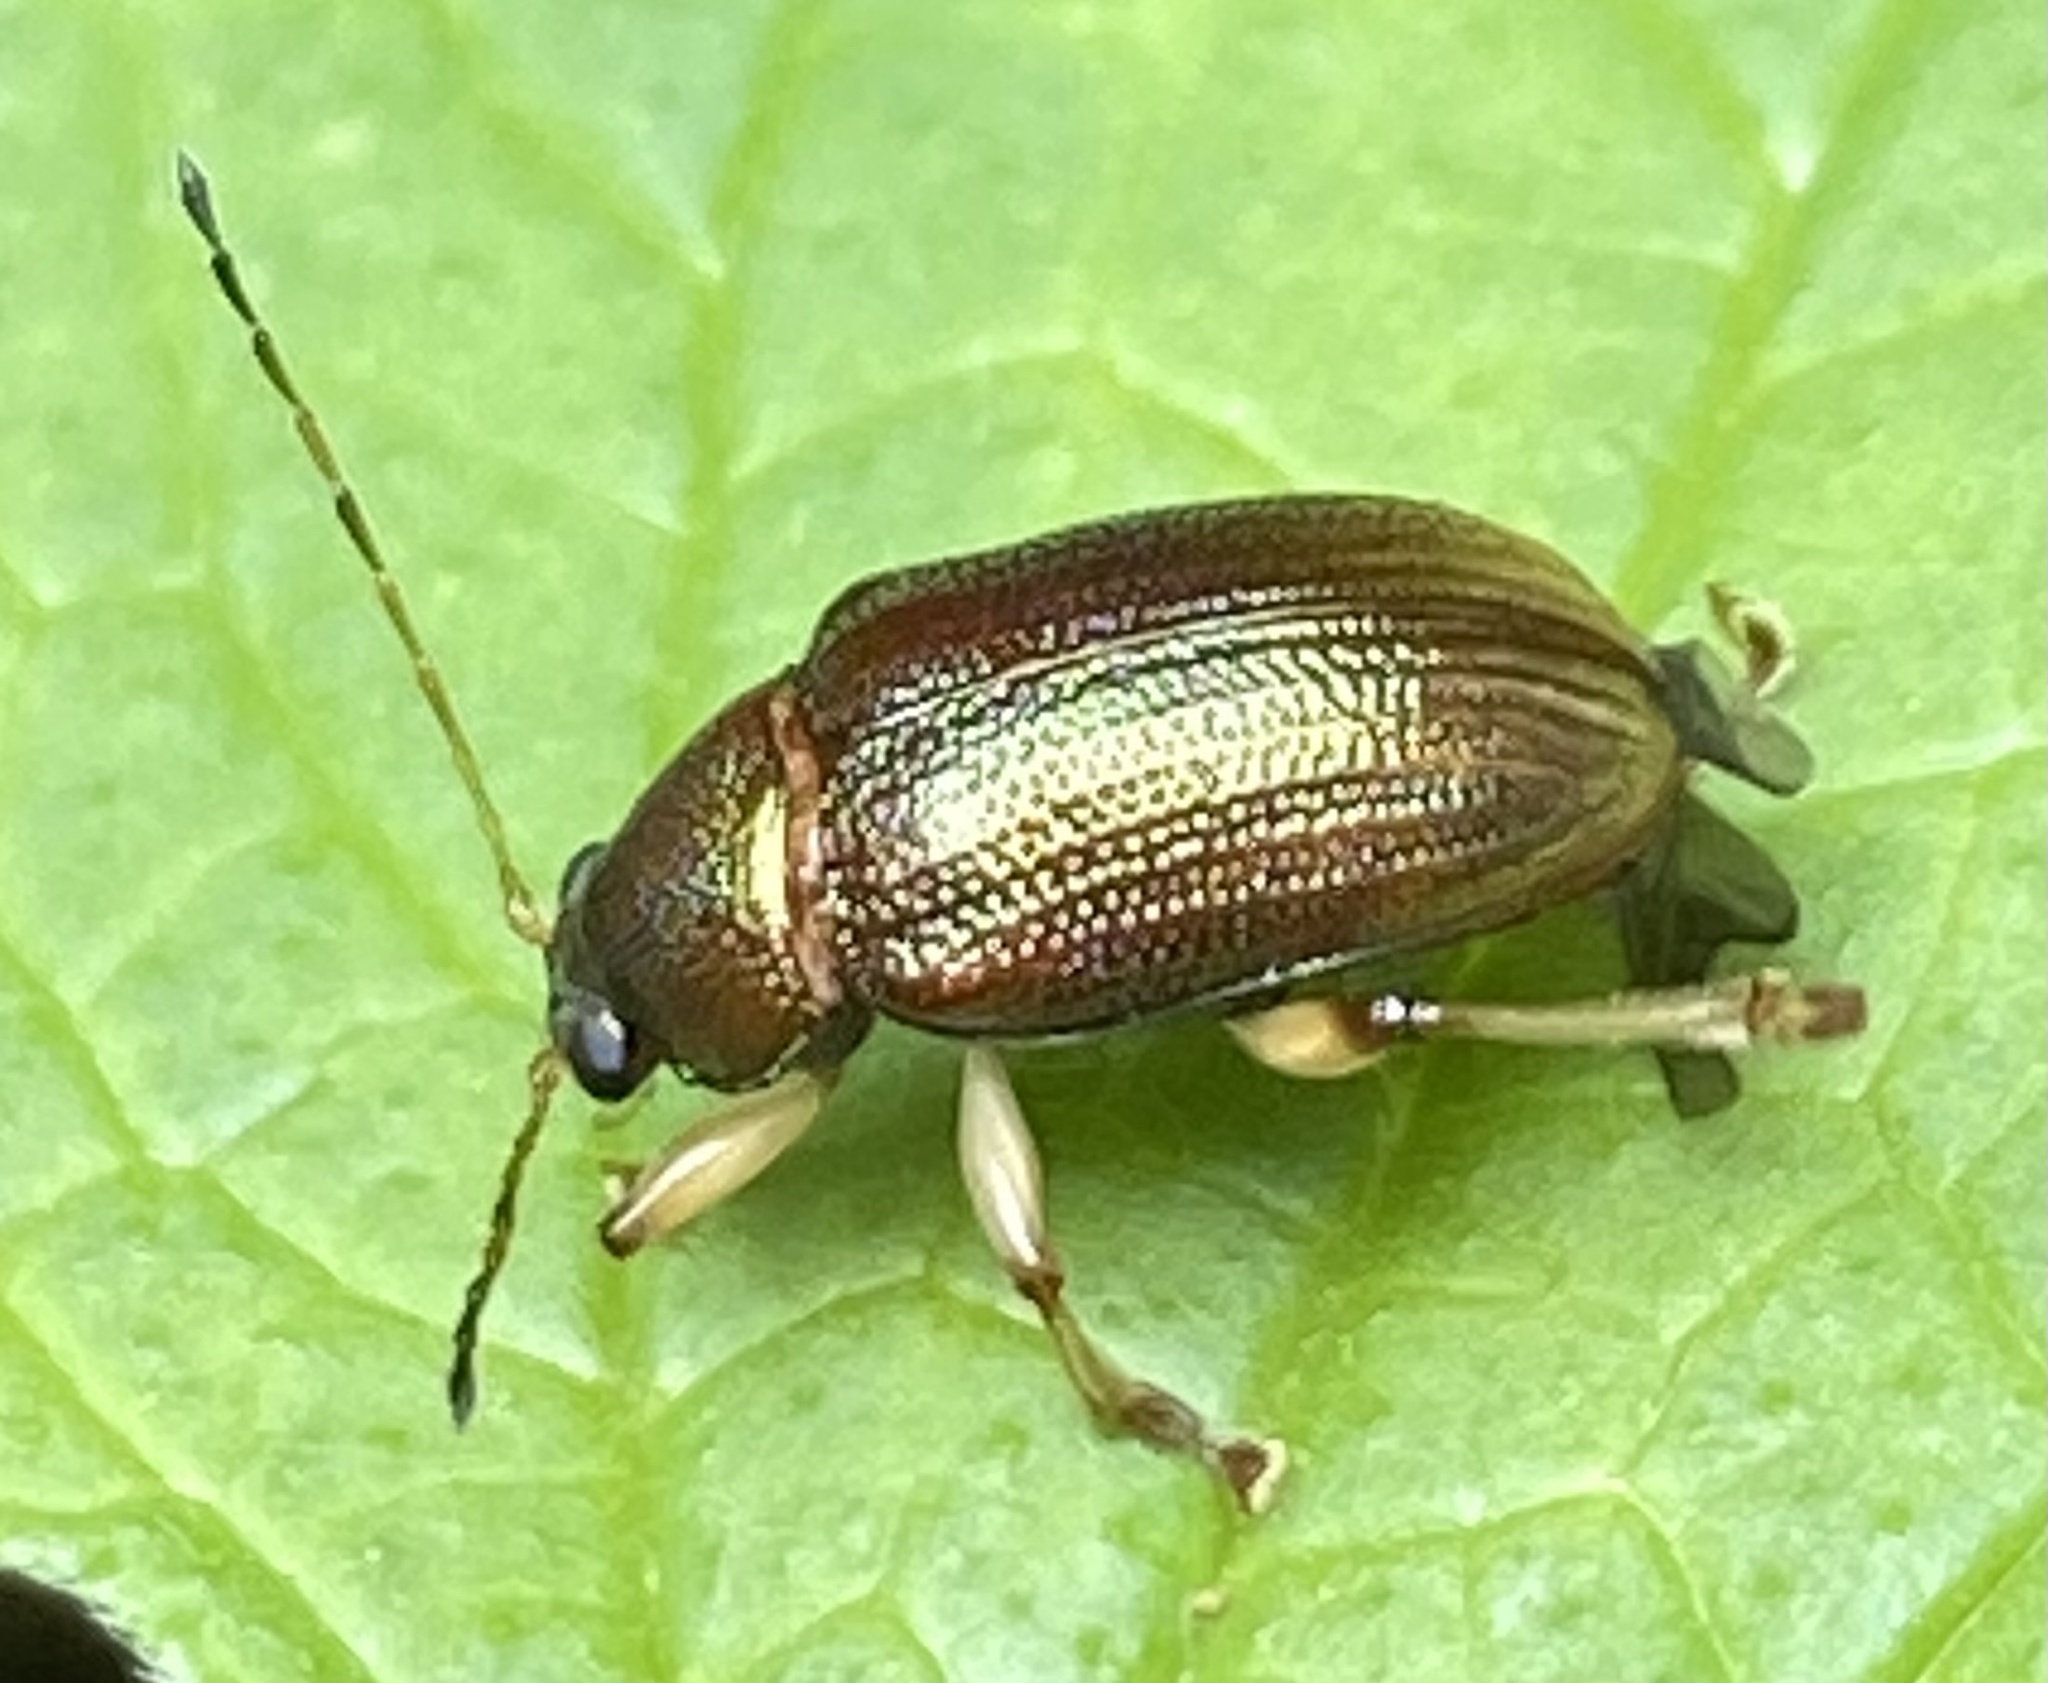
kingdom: Animalia
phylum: Arthropoda
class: Insecta
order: Coleoptera
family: Chrysomelidae
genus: Colaspis
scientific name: Colaspis aerea
